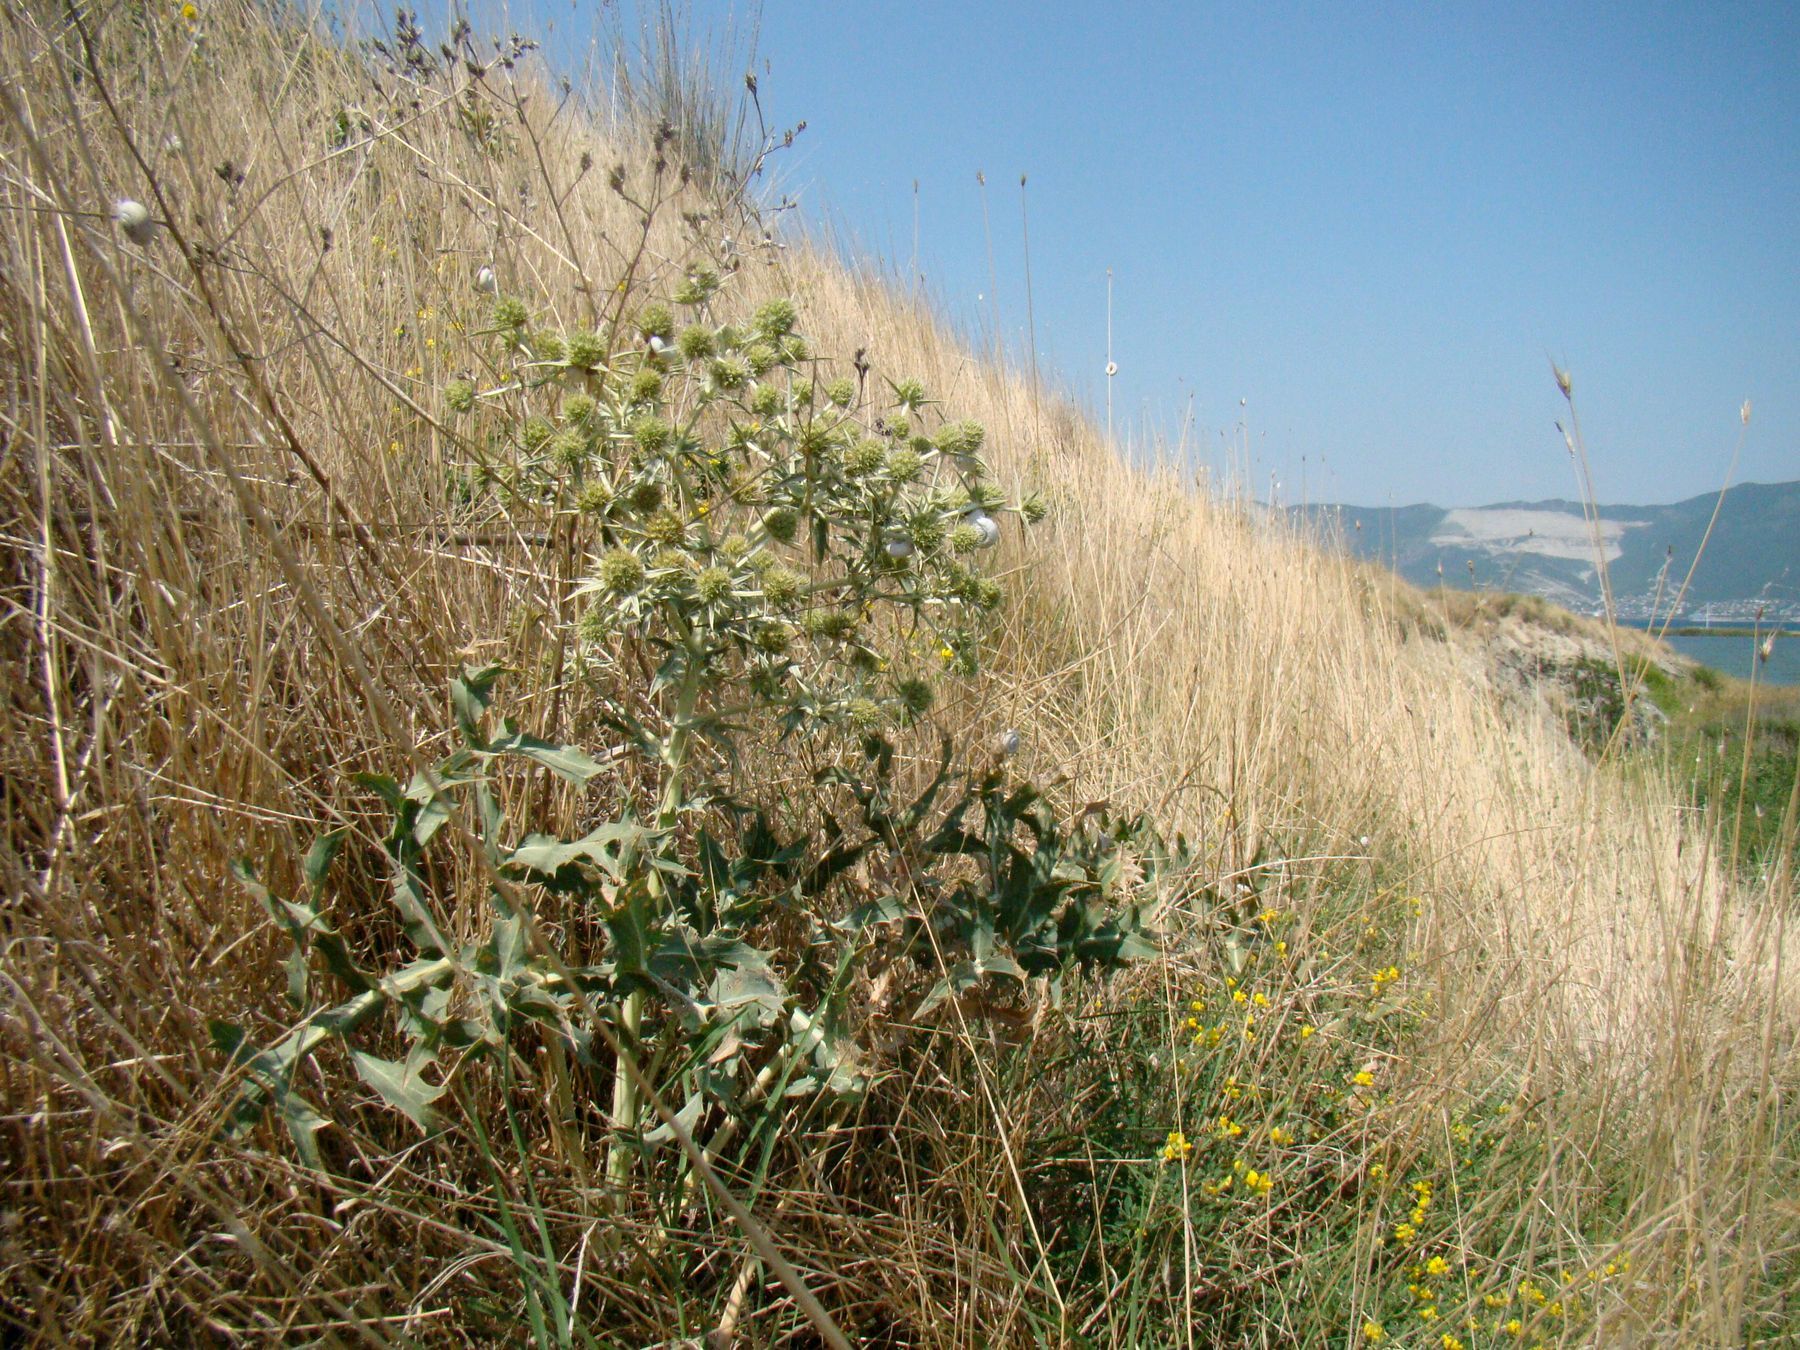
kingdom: Plantae
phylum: Tracheophyta
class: Magnoliopsida
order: Apiales
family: Apiaceae
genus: Eryngium
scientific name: Eryngium campestre
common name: Field eryngo
